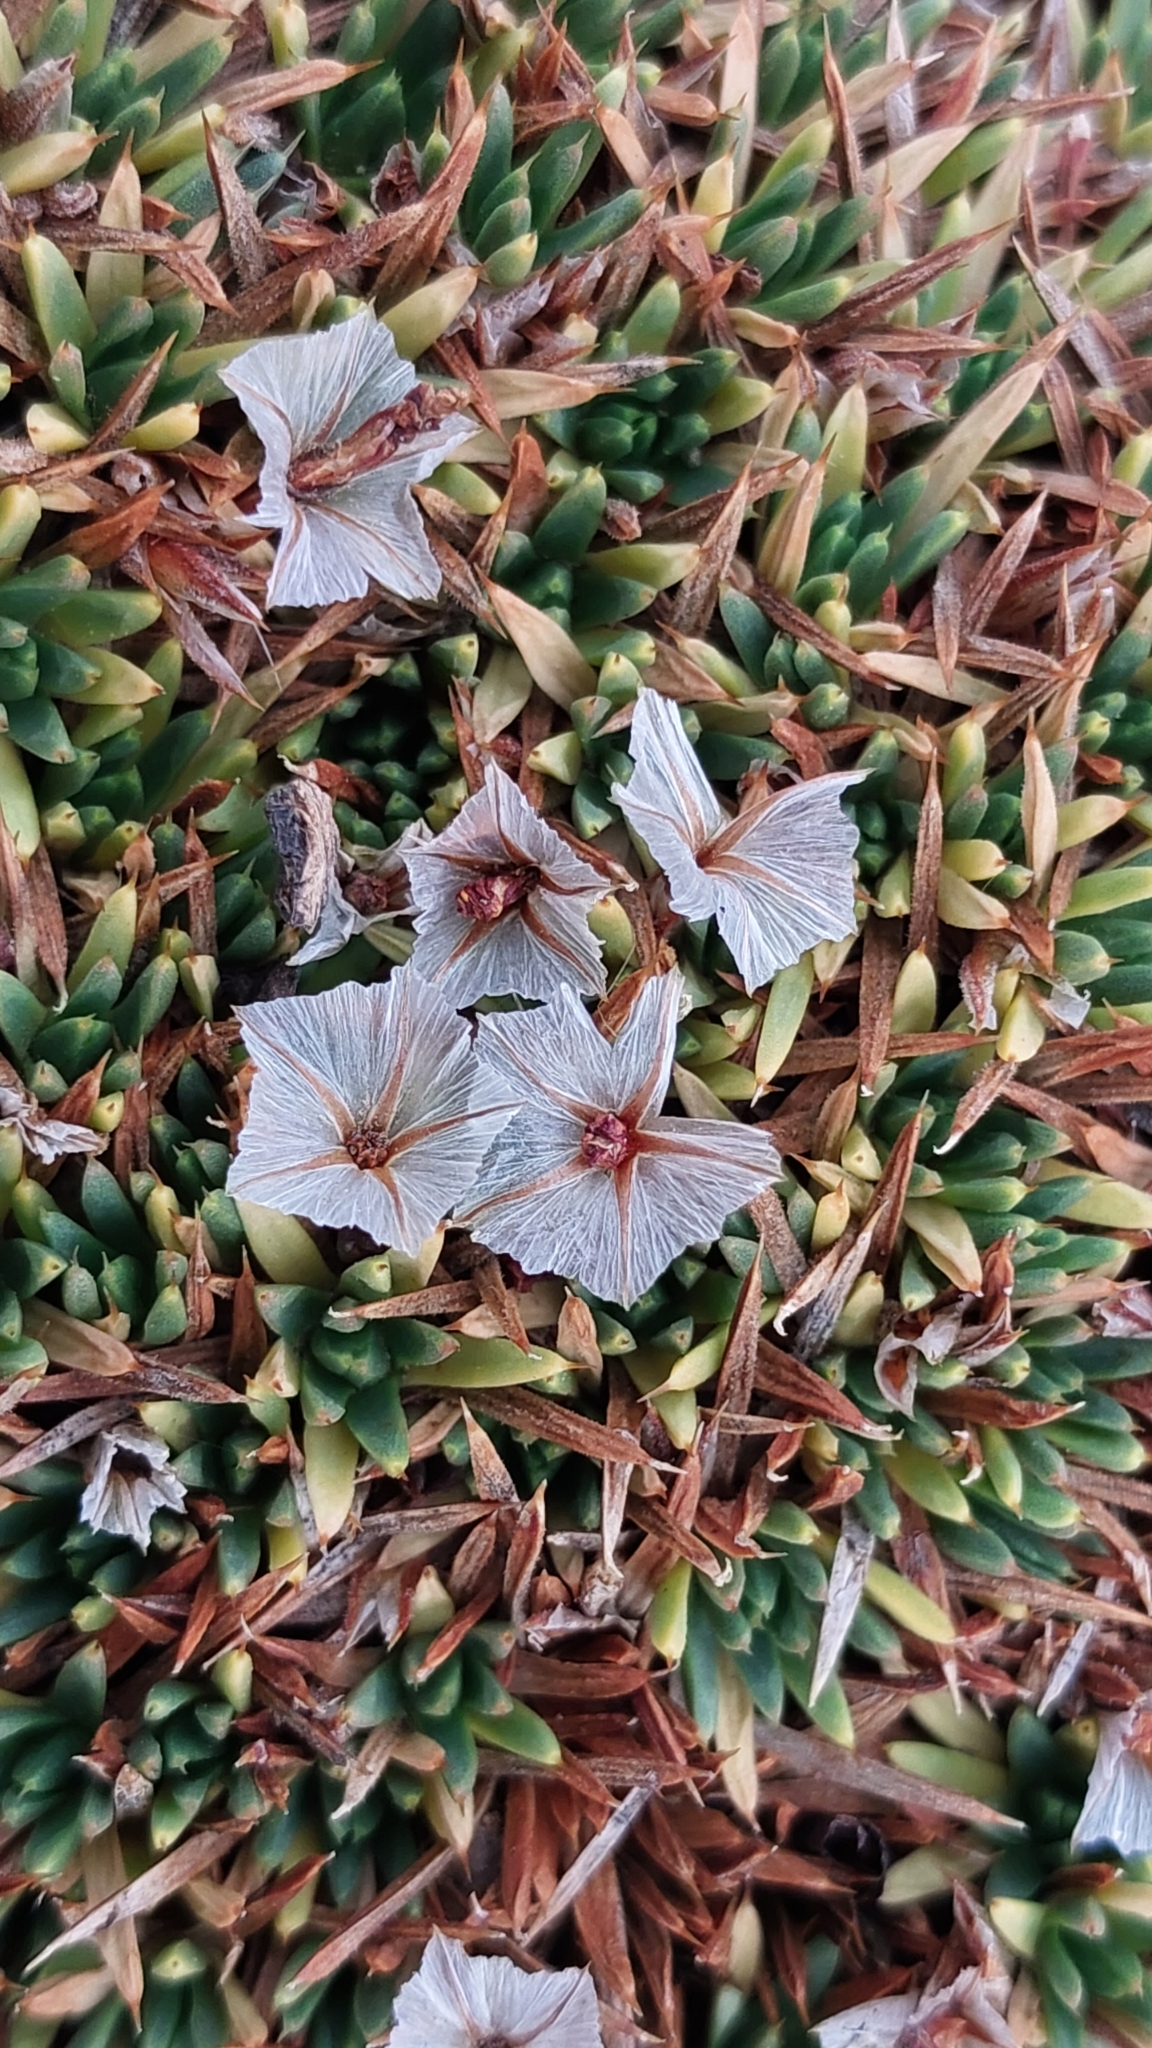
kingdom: Plantae
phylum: Tracheophyta
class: Magnoliopsida
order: Caryophyllales
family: Plumbaginaceae
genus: Acantholimon
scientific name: Acantholimon ulicinum
